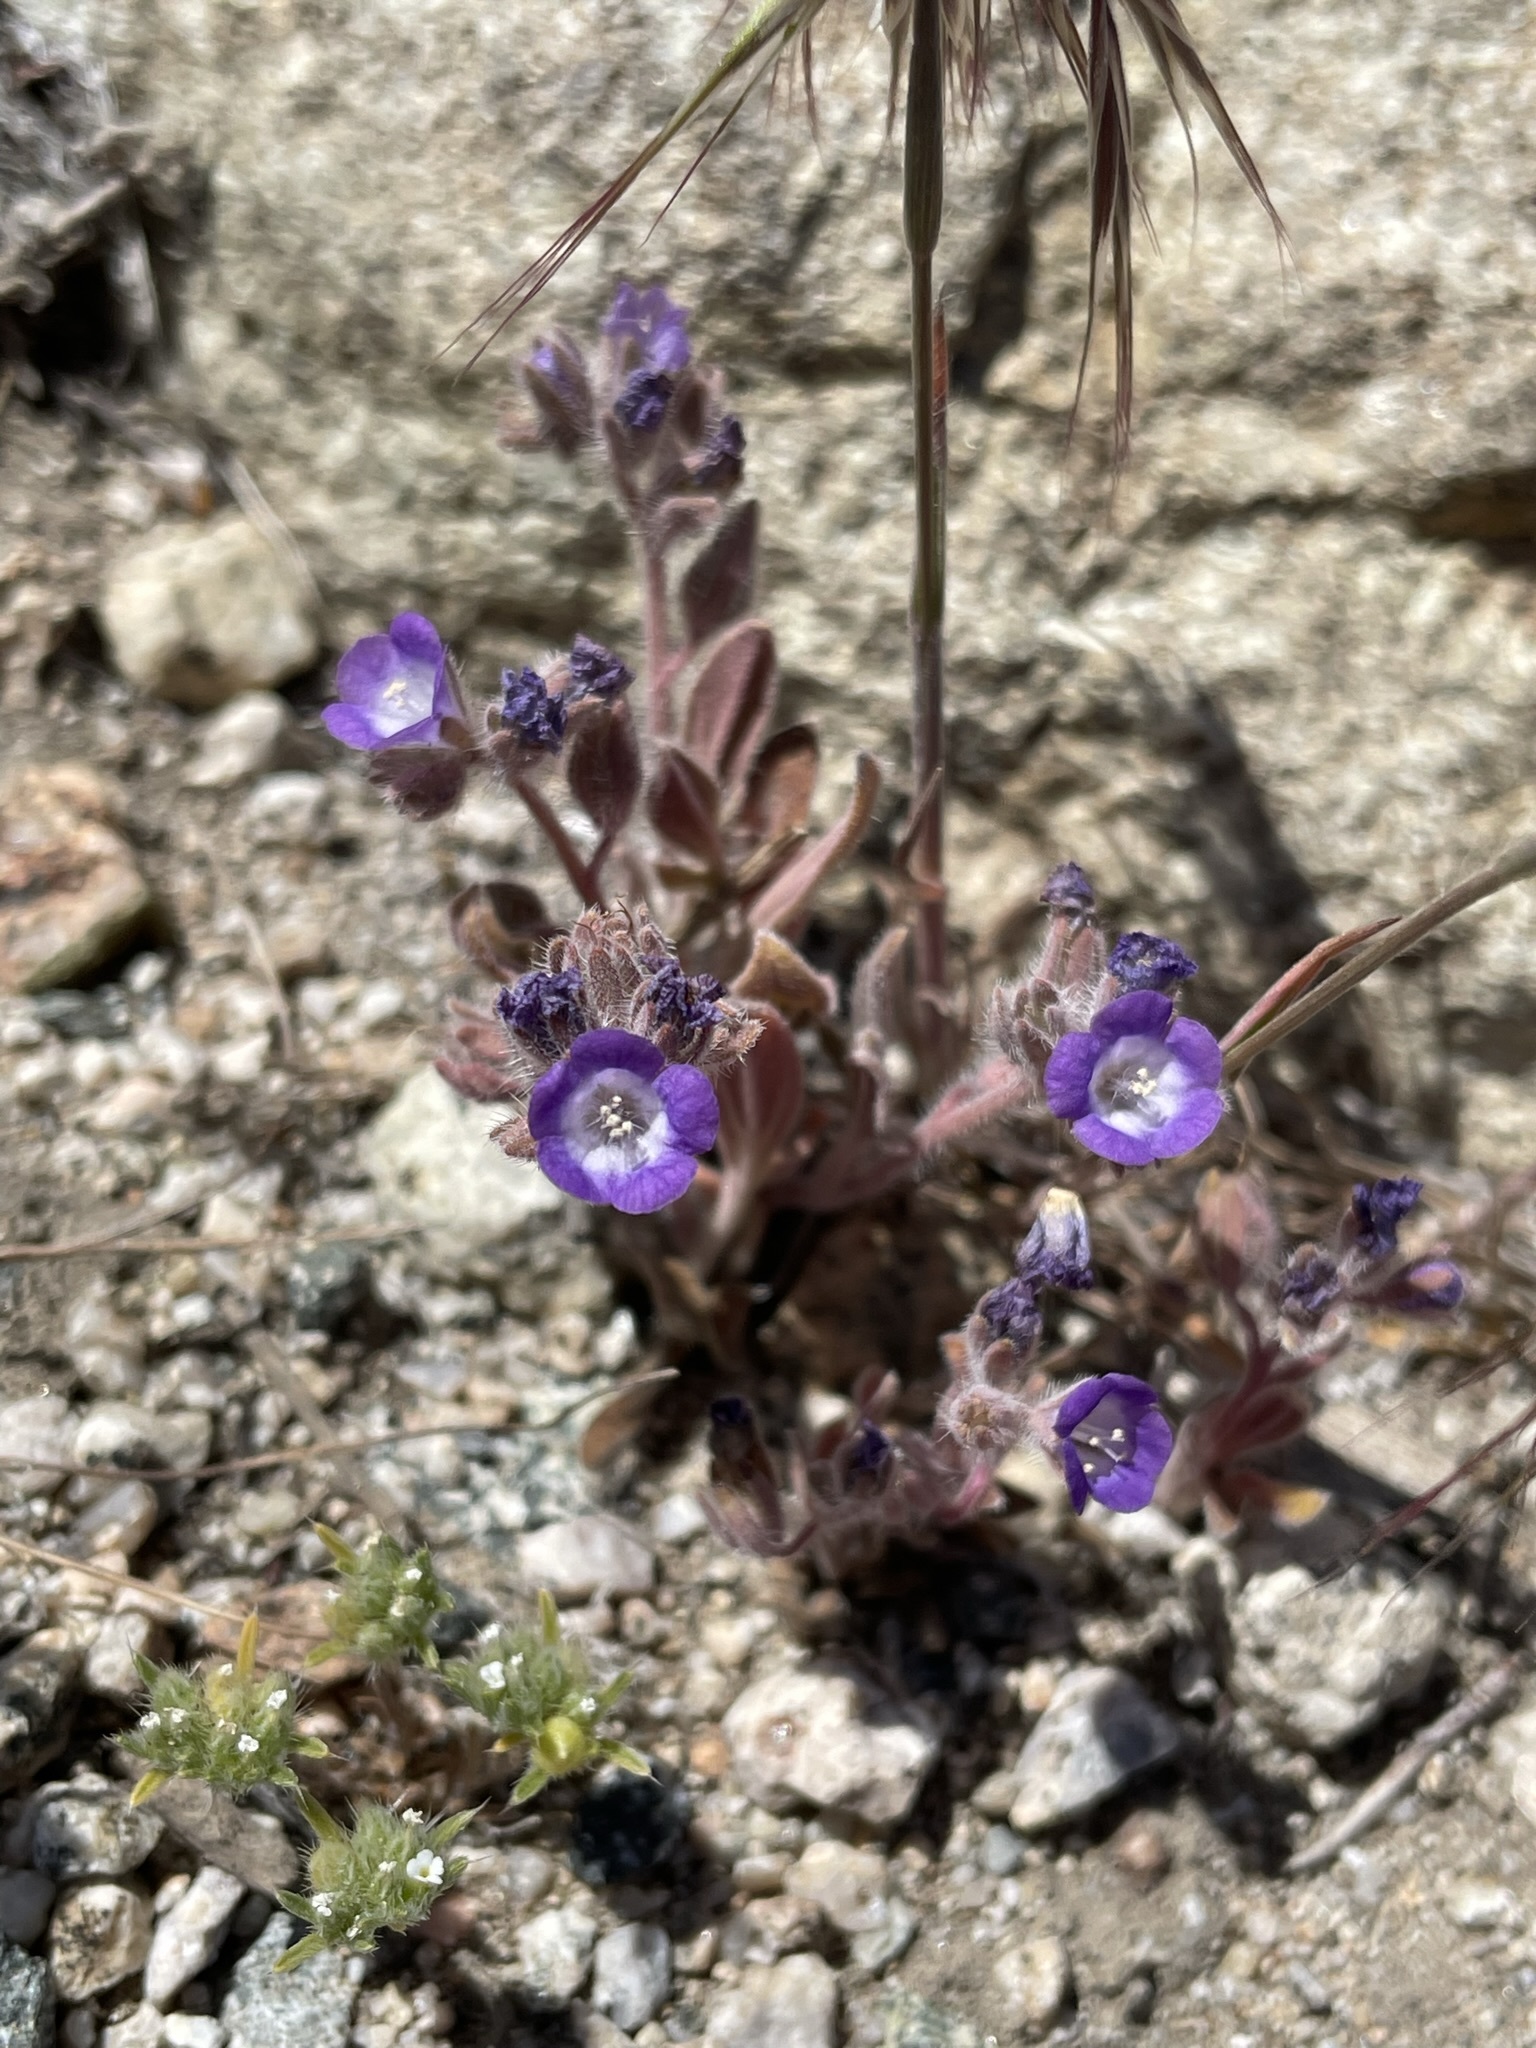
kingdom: Plantae
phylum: Tracheophyta
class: Magnoliopsida
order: Boraginales
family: Hydrophyllaceae
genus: Phacelia
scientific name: Phacelia curvipes
